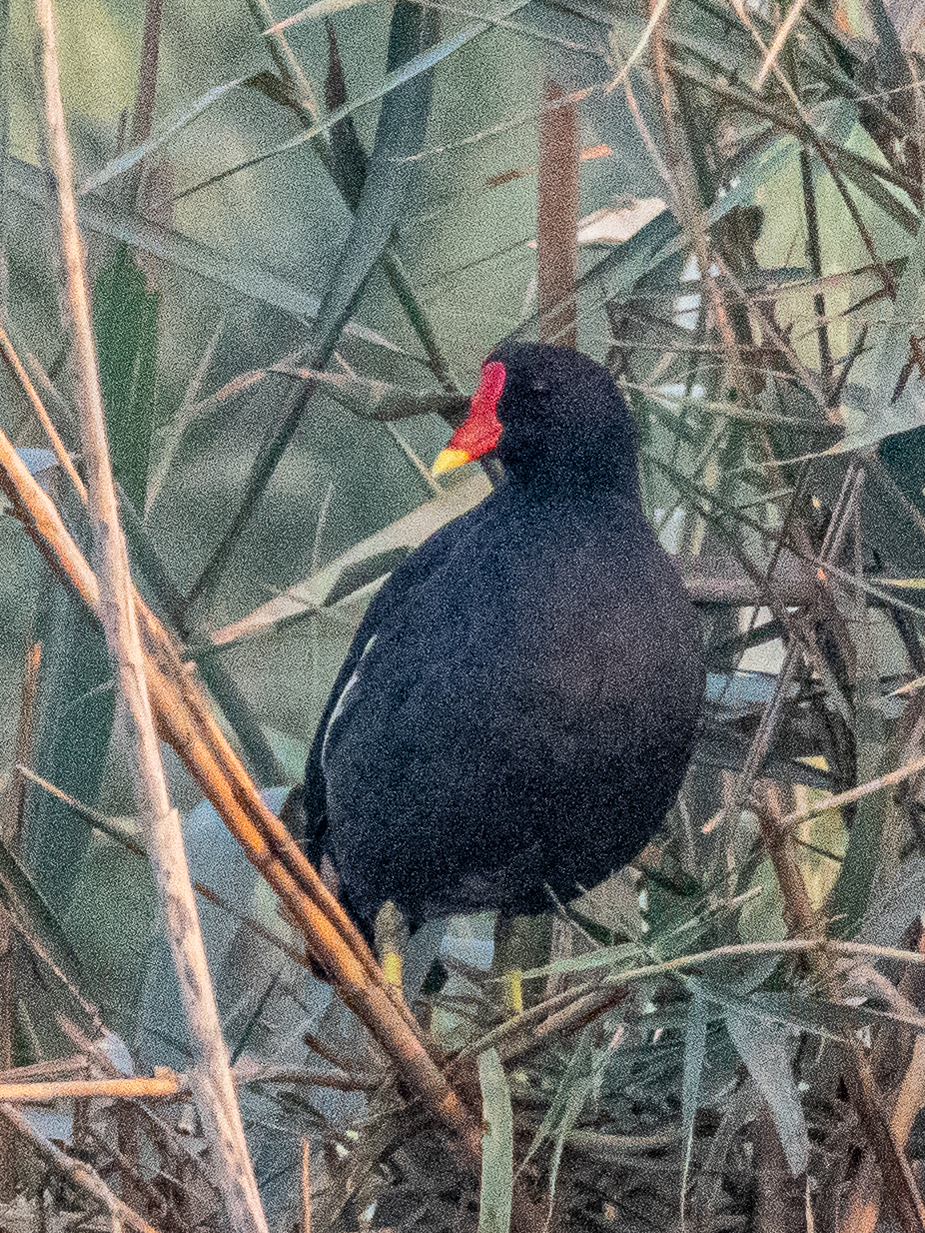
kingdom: Animalia
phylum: Chordata
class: Aves
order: Gruiformes
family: Rallidae
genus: Gallinula
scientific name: Gallinula chloropus
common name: Common moorhen
